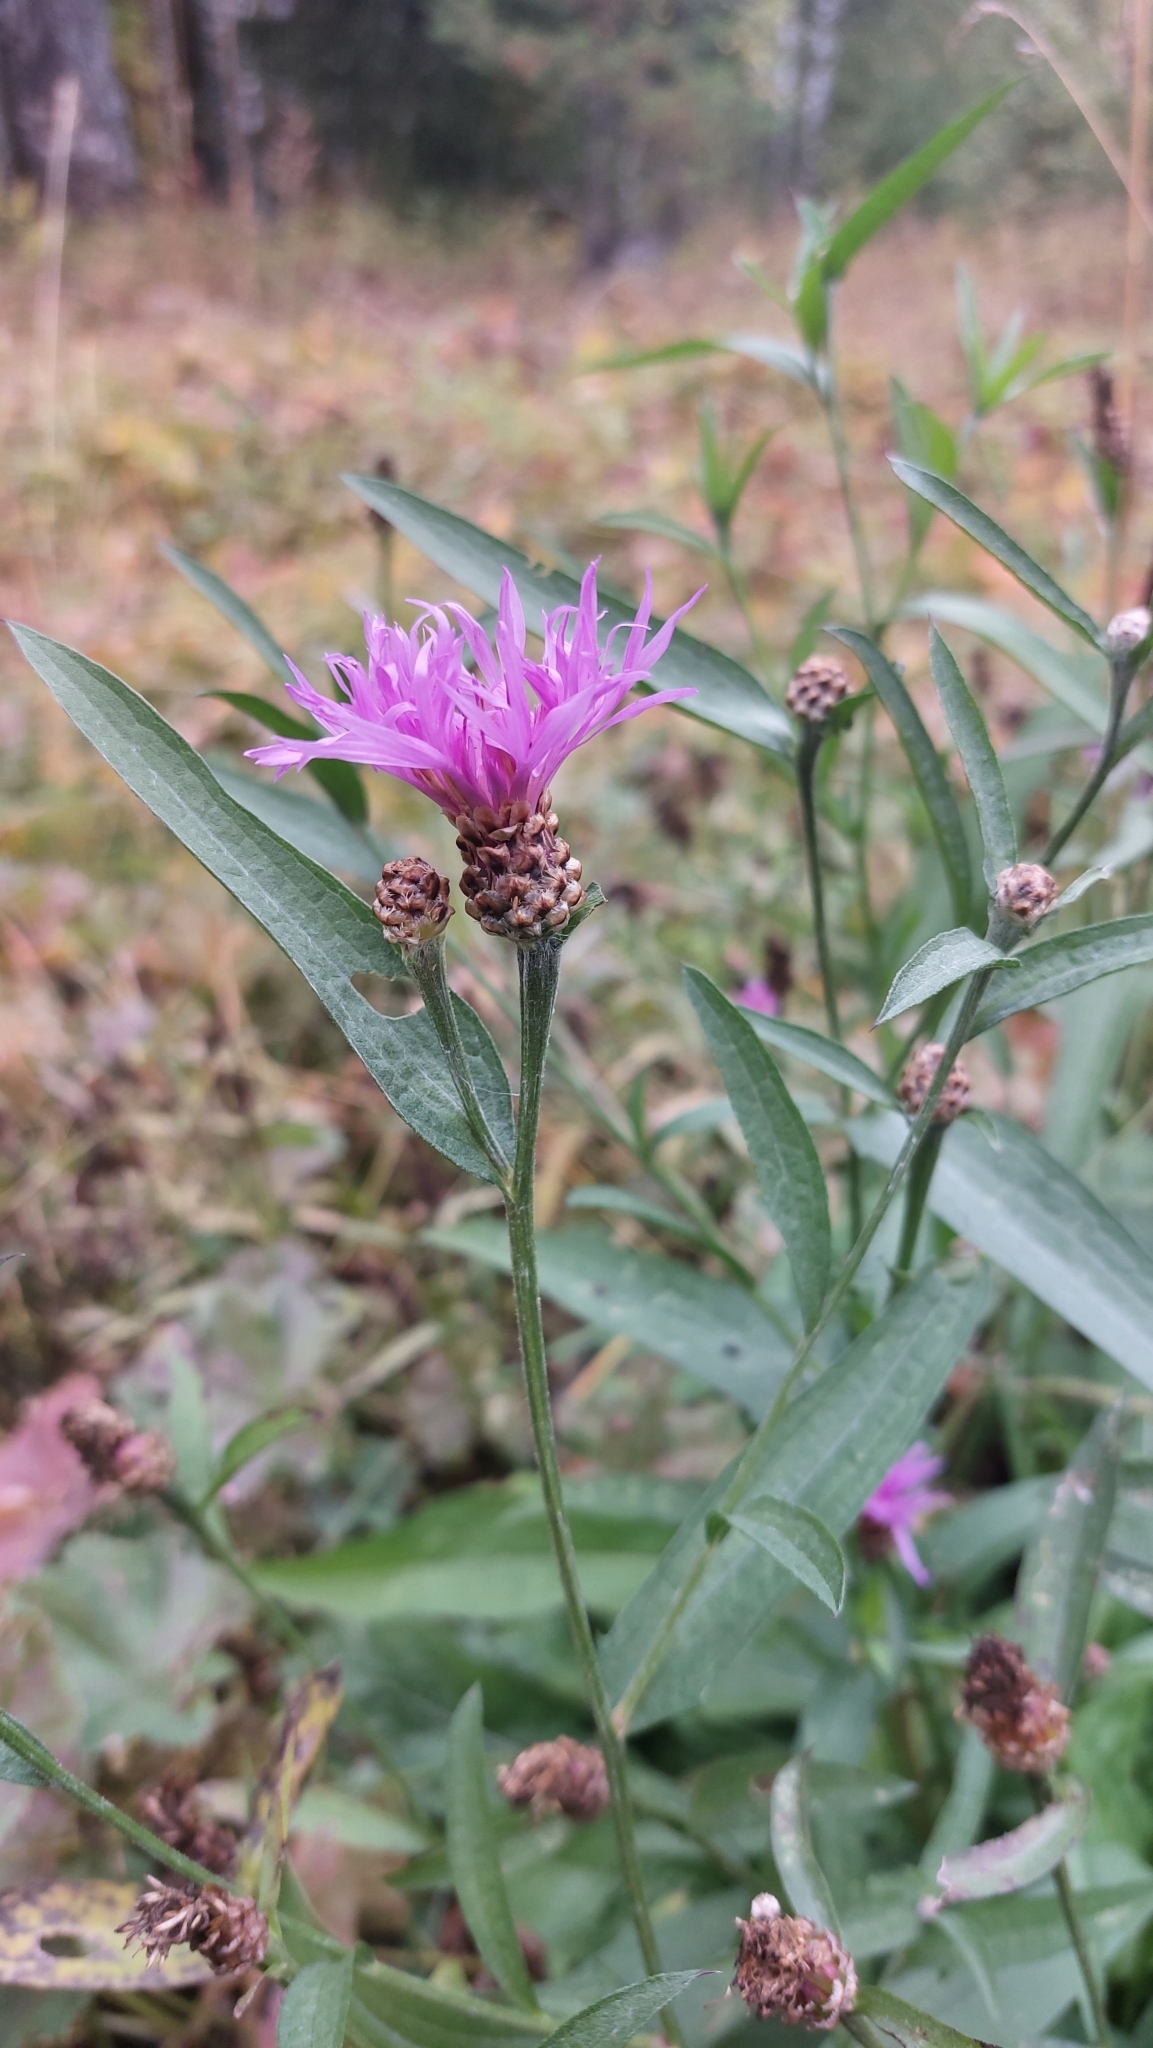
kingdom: Plantae
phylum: Tracheophyta
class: Magnoliopsida
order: Asterales
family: Asteraceae
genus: Centaurea
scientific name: Centaurea jacea
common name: Brown knapweed
